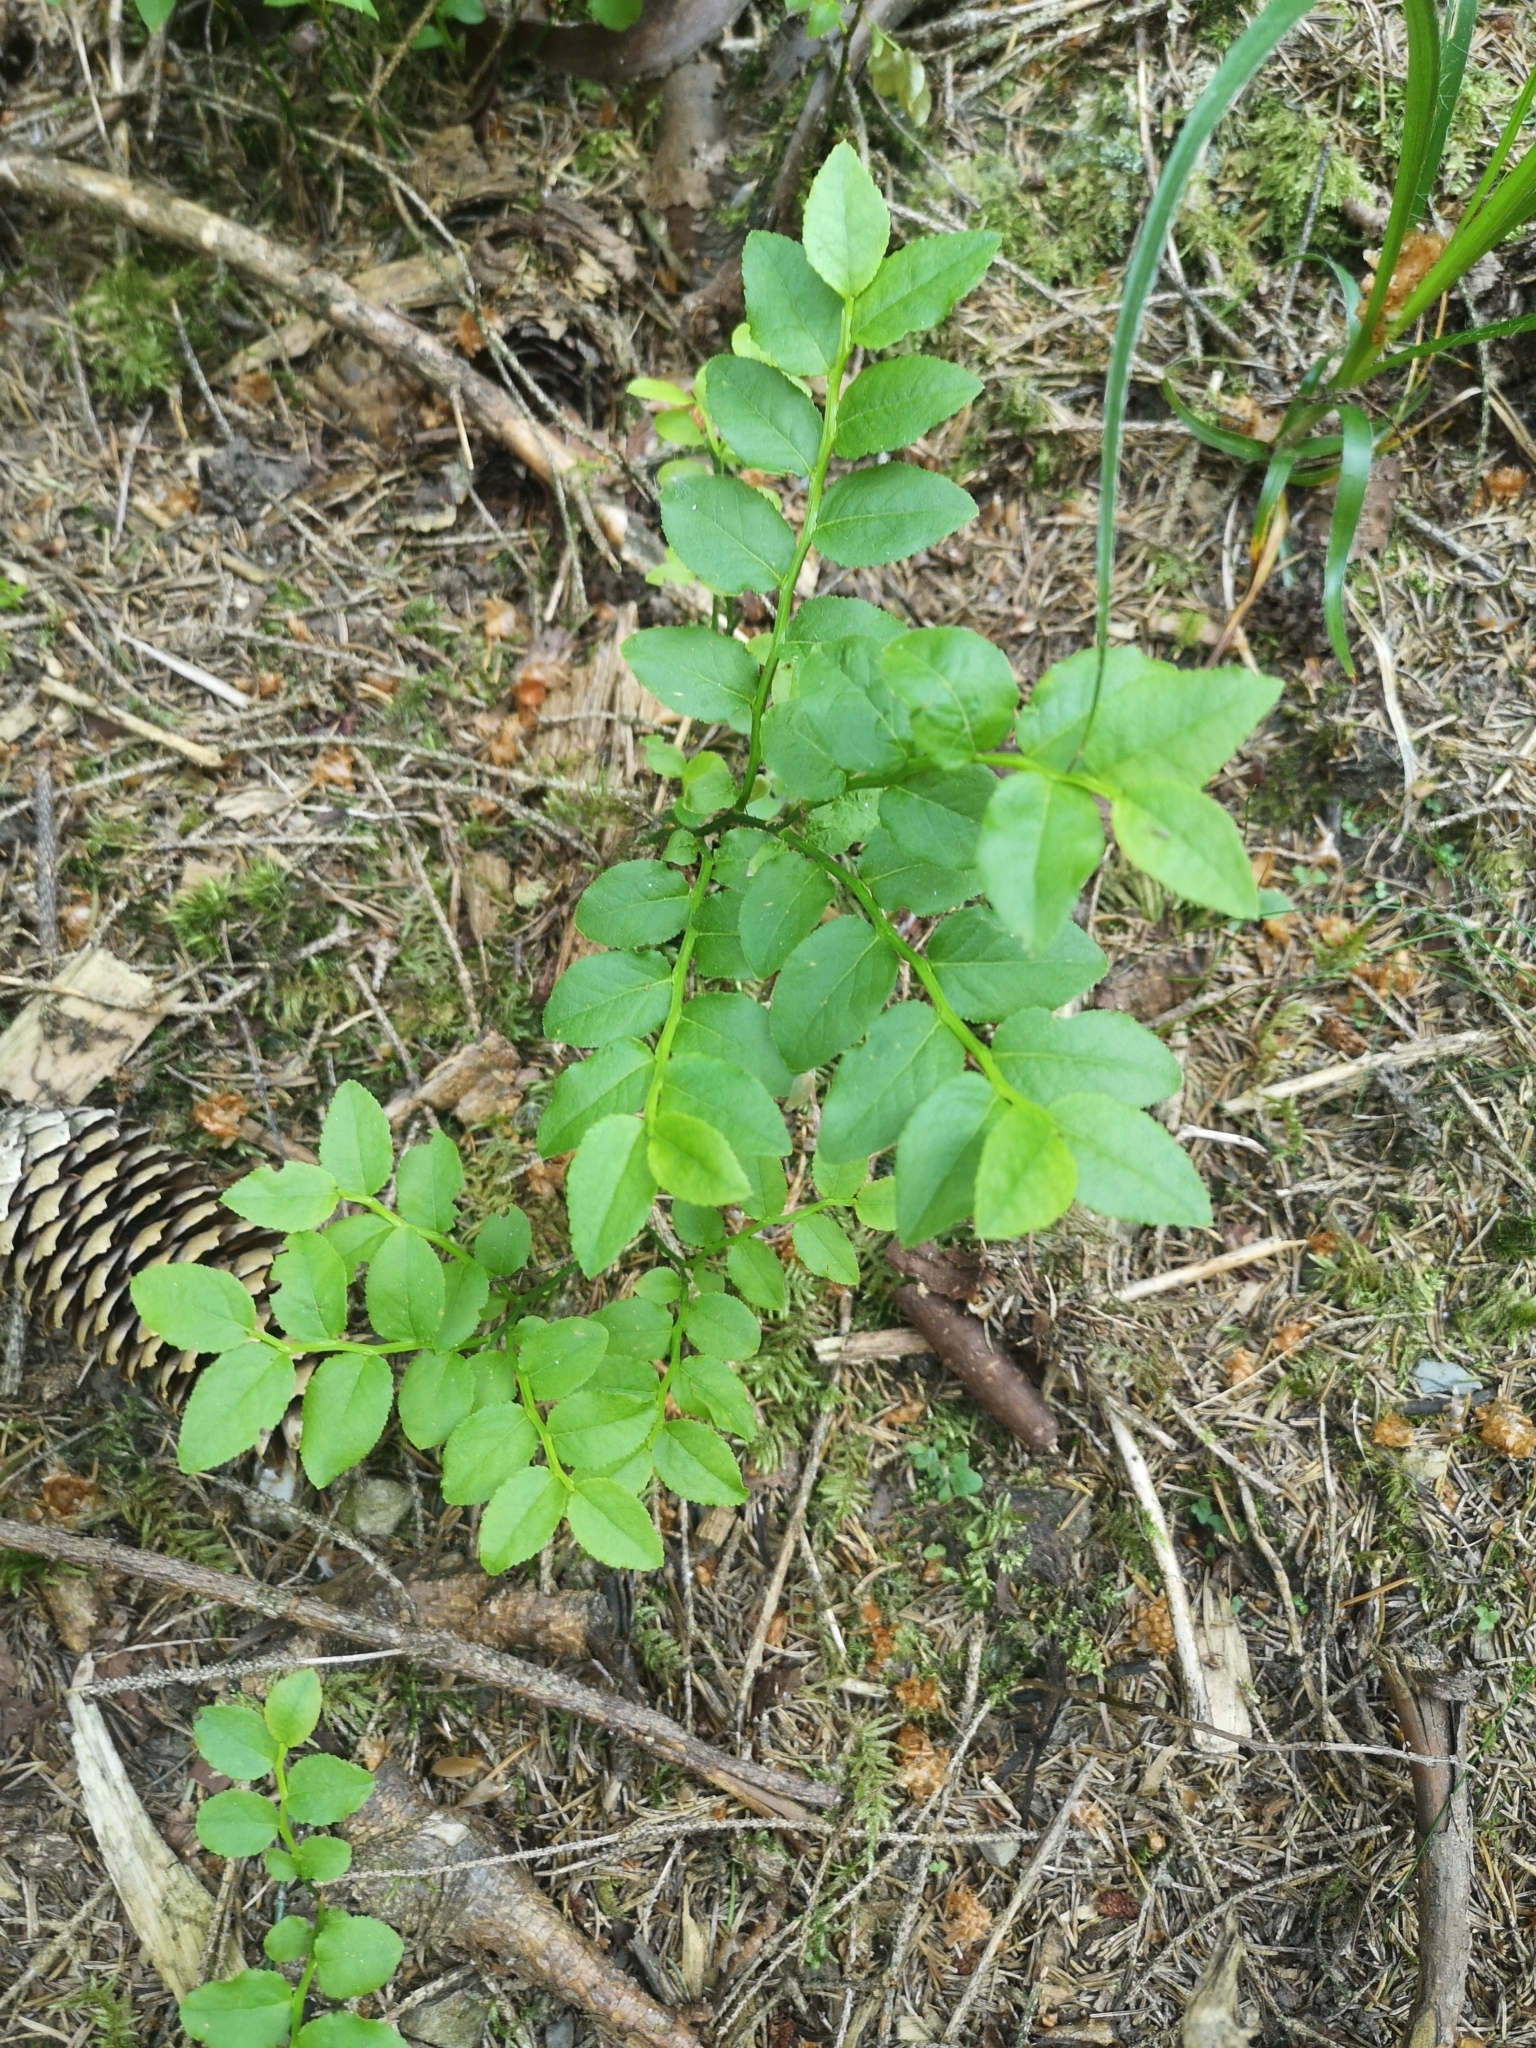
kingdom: Plantae
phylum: Tracheophyta
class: Magnoliopsida
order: Ericales
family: Ericaceae
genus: Vaccinium
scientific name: Vaccinium myrtillus
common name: Bilberry
